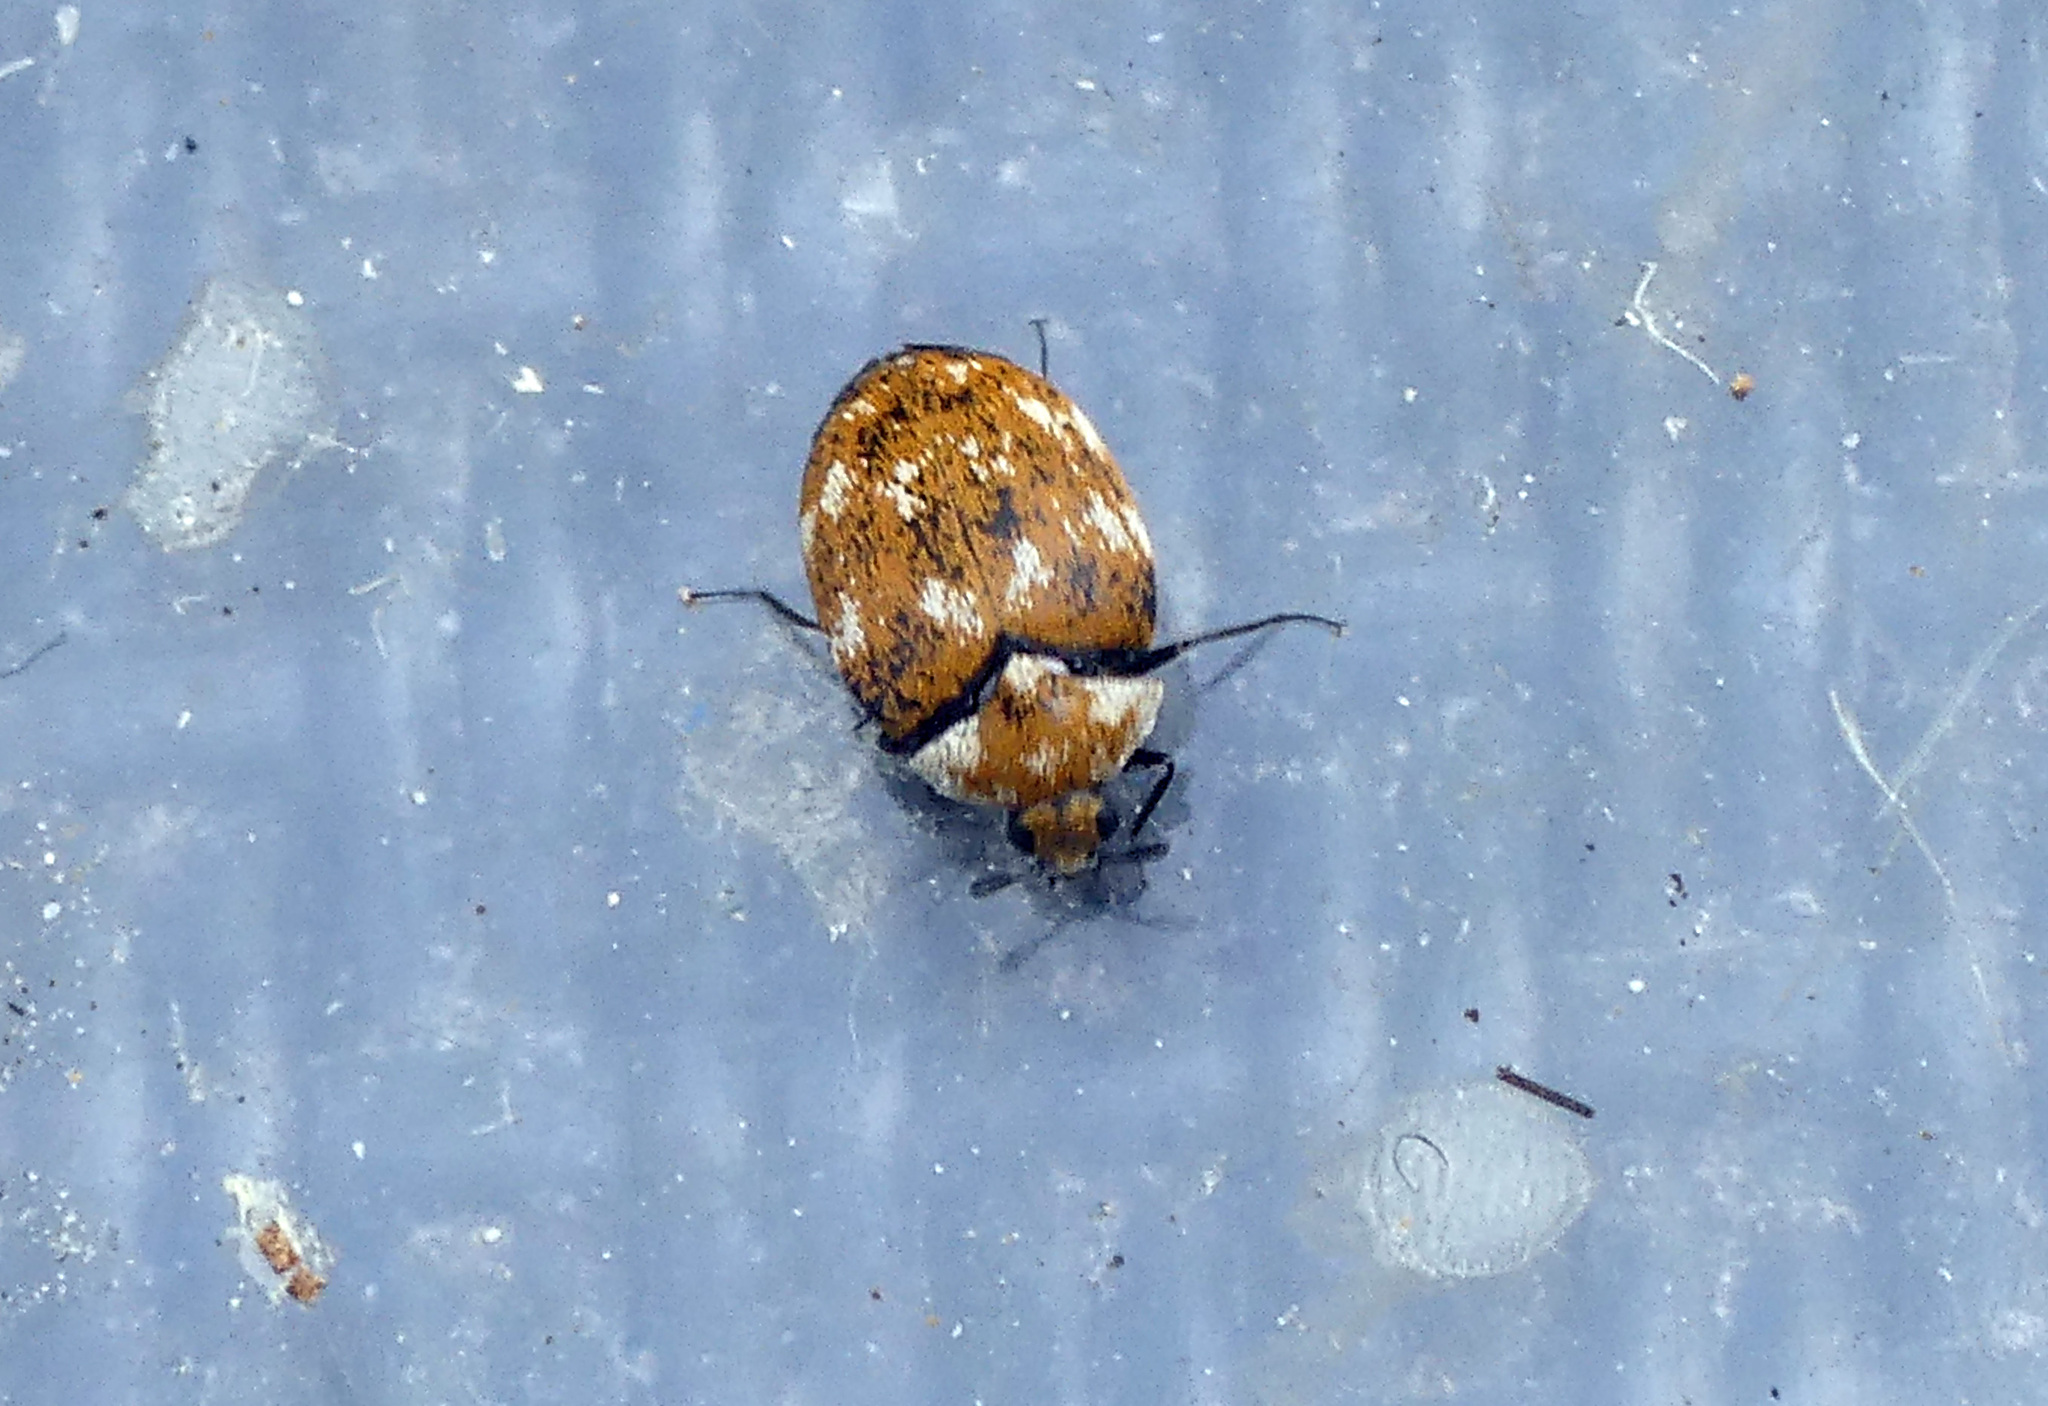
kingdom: Animalia
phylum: Arthropoda
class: Insecta
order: Coleoptera
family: Dermestidae
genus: Anthrenus
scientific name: Anthrenus verbasci
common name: Varied carpet beetle
